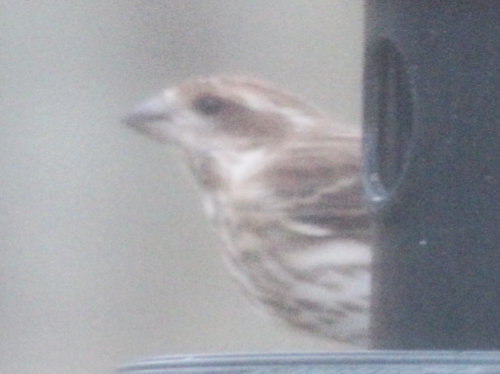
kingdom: Animalia
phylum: Chordata
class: Aves
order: Passeriformes
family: Fringillidae
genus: Haemorhous
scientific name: Haemorhous purpureus
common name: Purple finch
